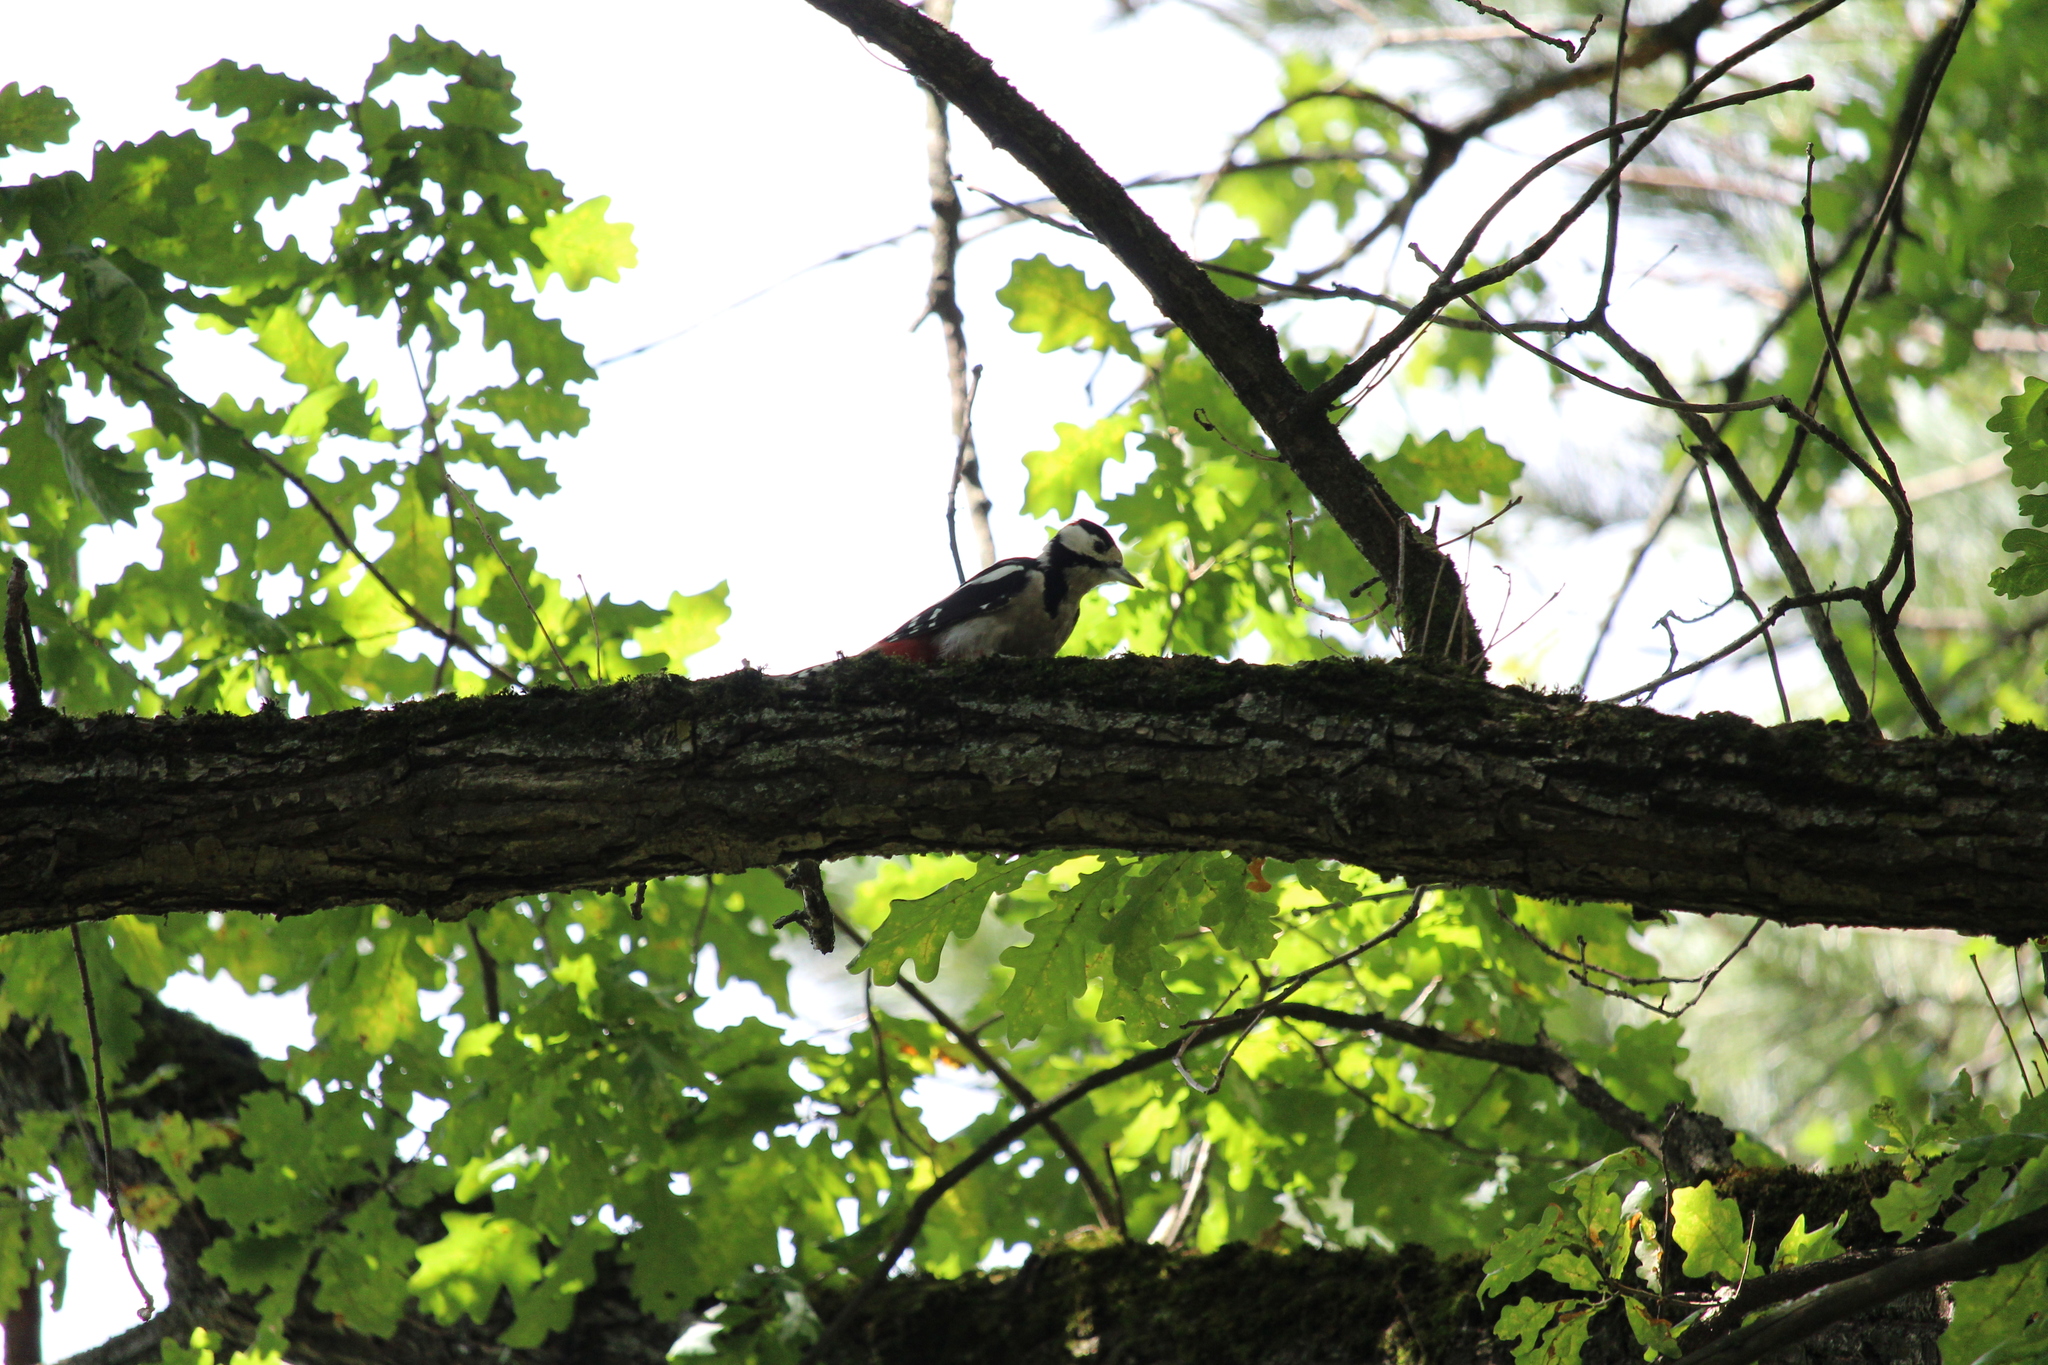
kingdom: Animalia
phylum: Chordata
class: Aves
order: Piciformes
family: Picidae
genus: Dendrocopos
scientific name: Dendrocopos major
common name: Great spotted woodpecker
